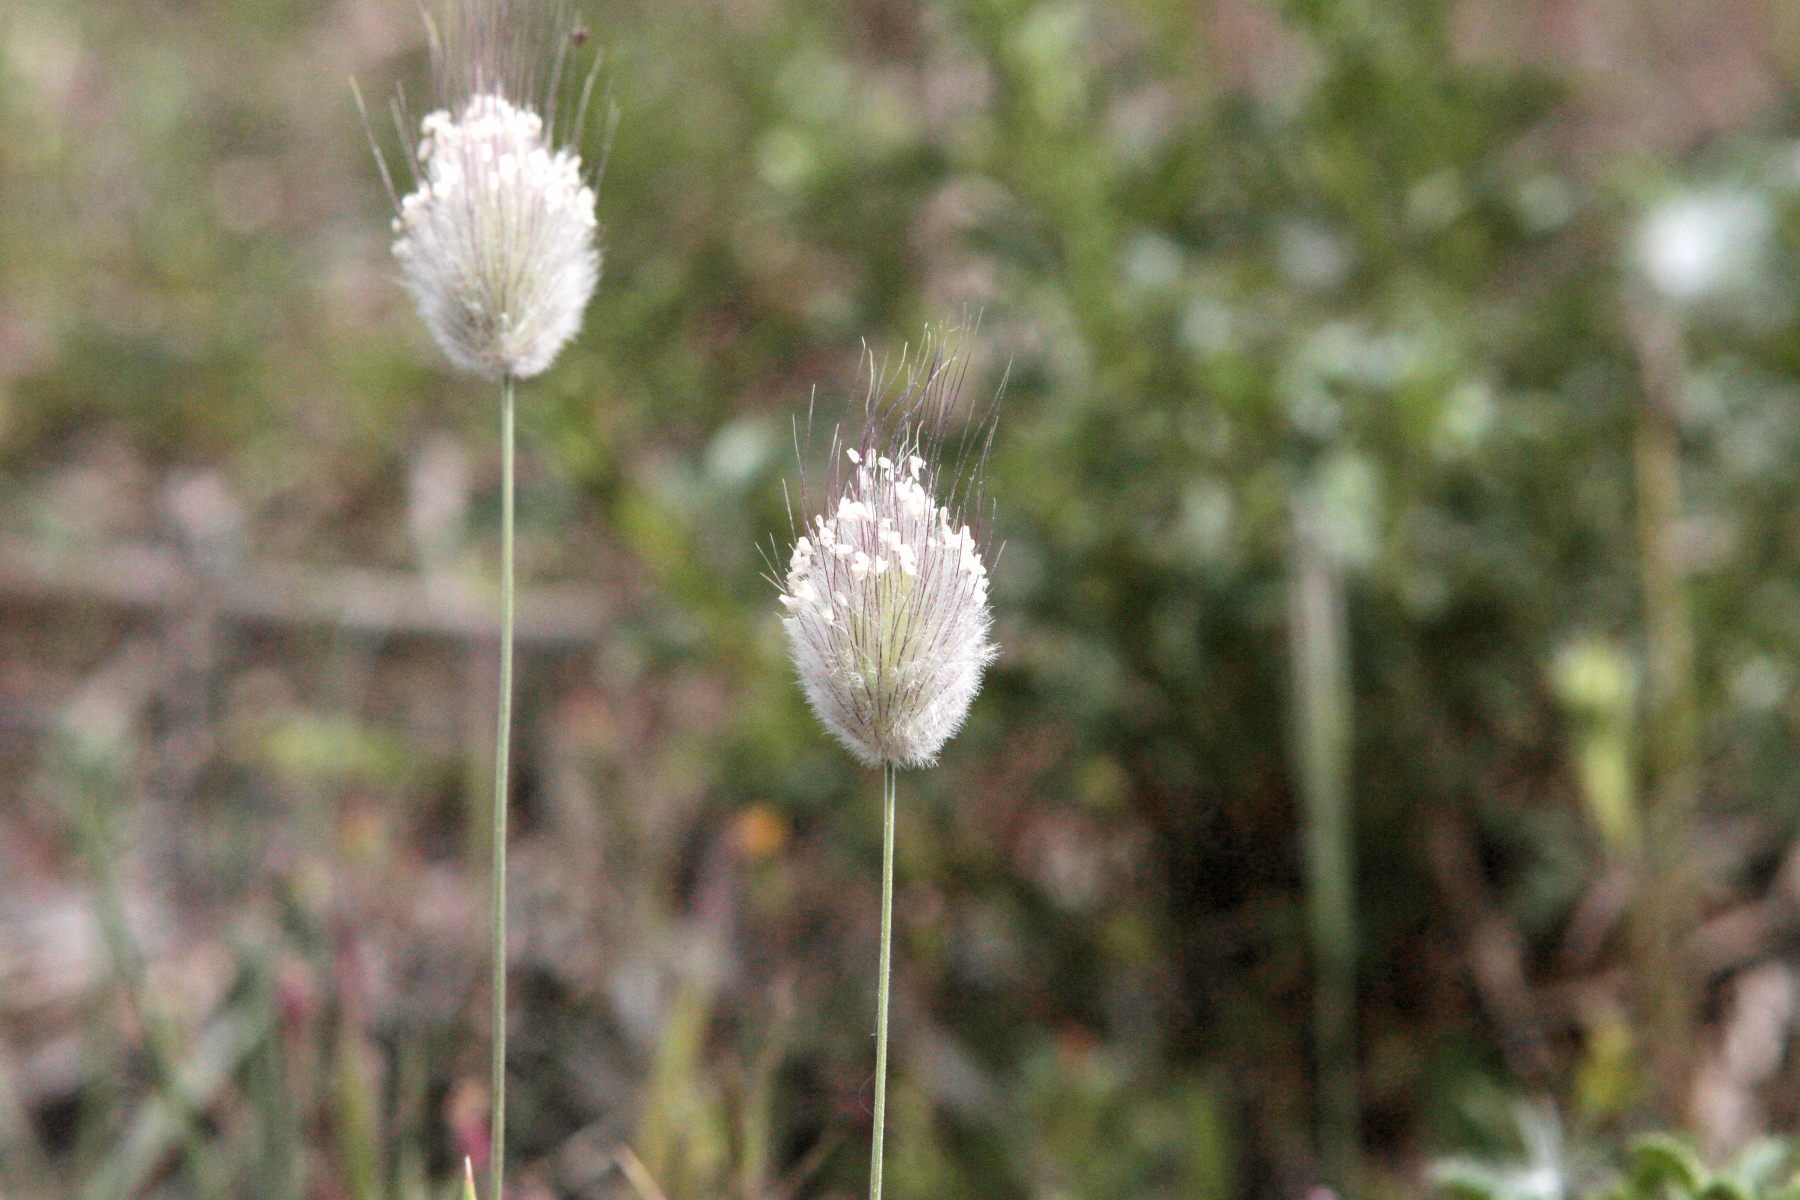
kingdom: Plantae
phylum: Tracheophyta
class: Liliopsida
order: Poales
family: Poaceae
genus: Lagurus
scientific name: Lagurus ovatus
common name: Hare's-tail
